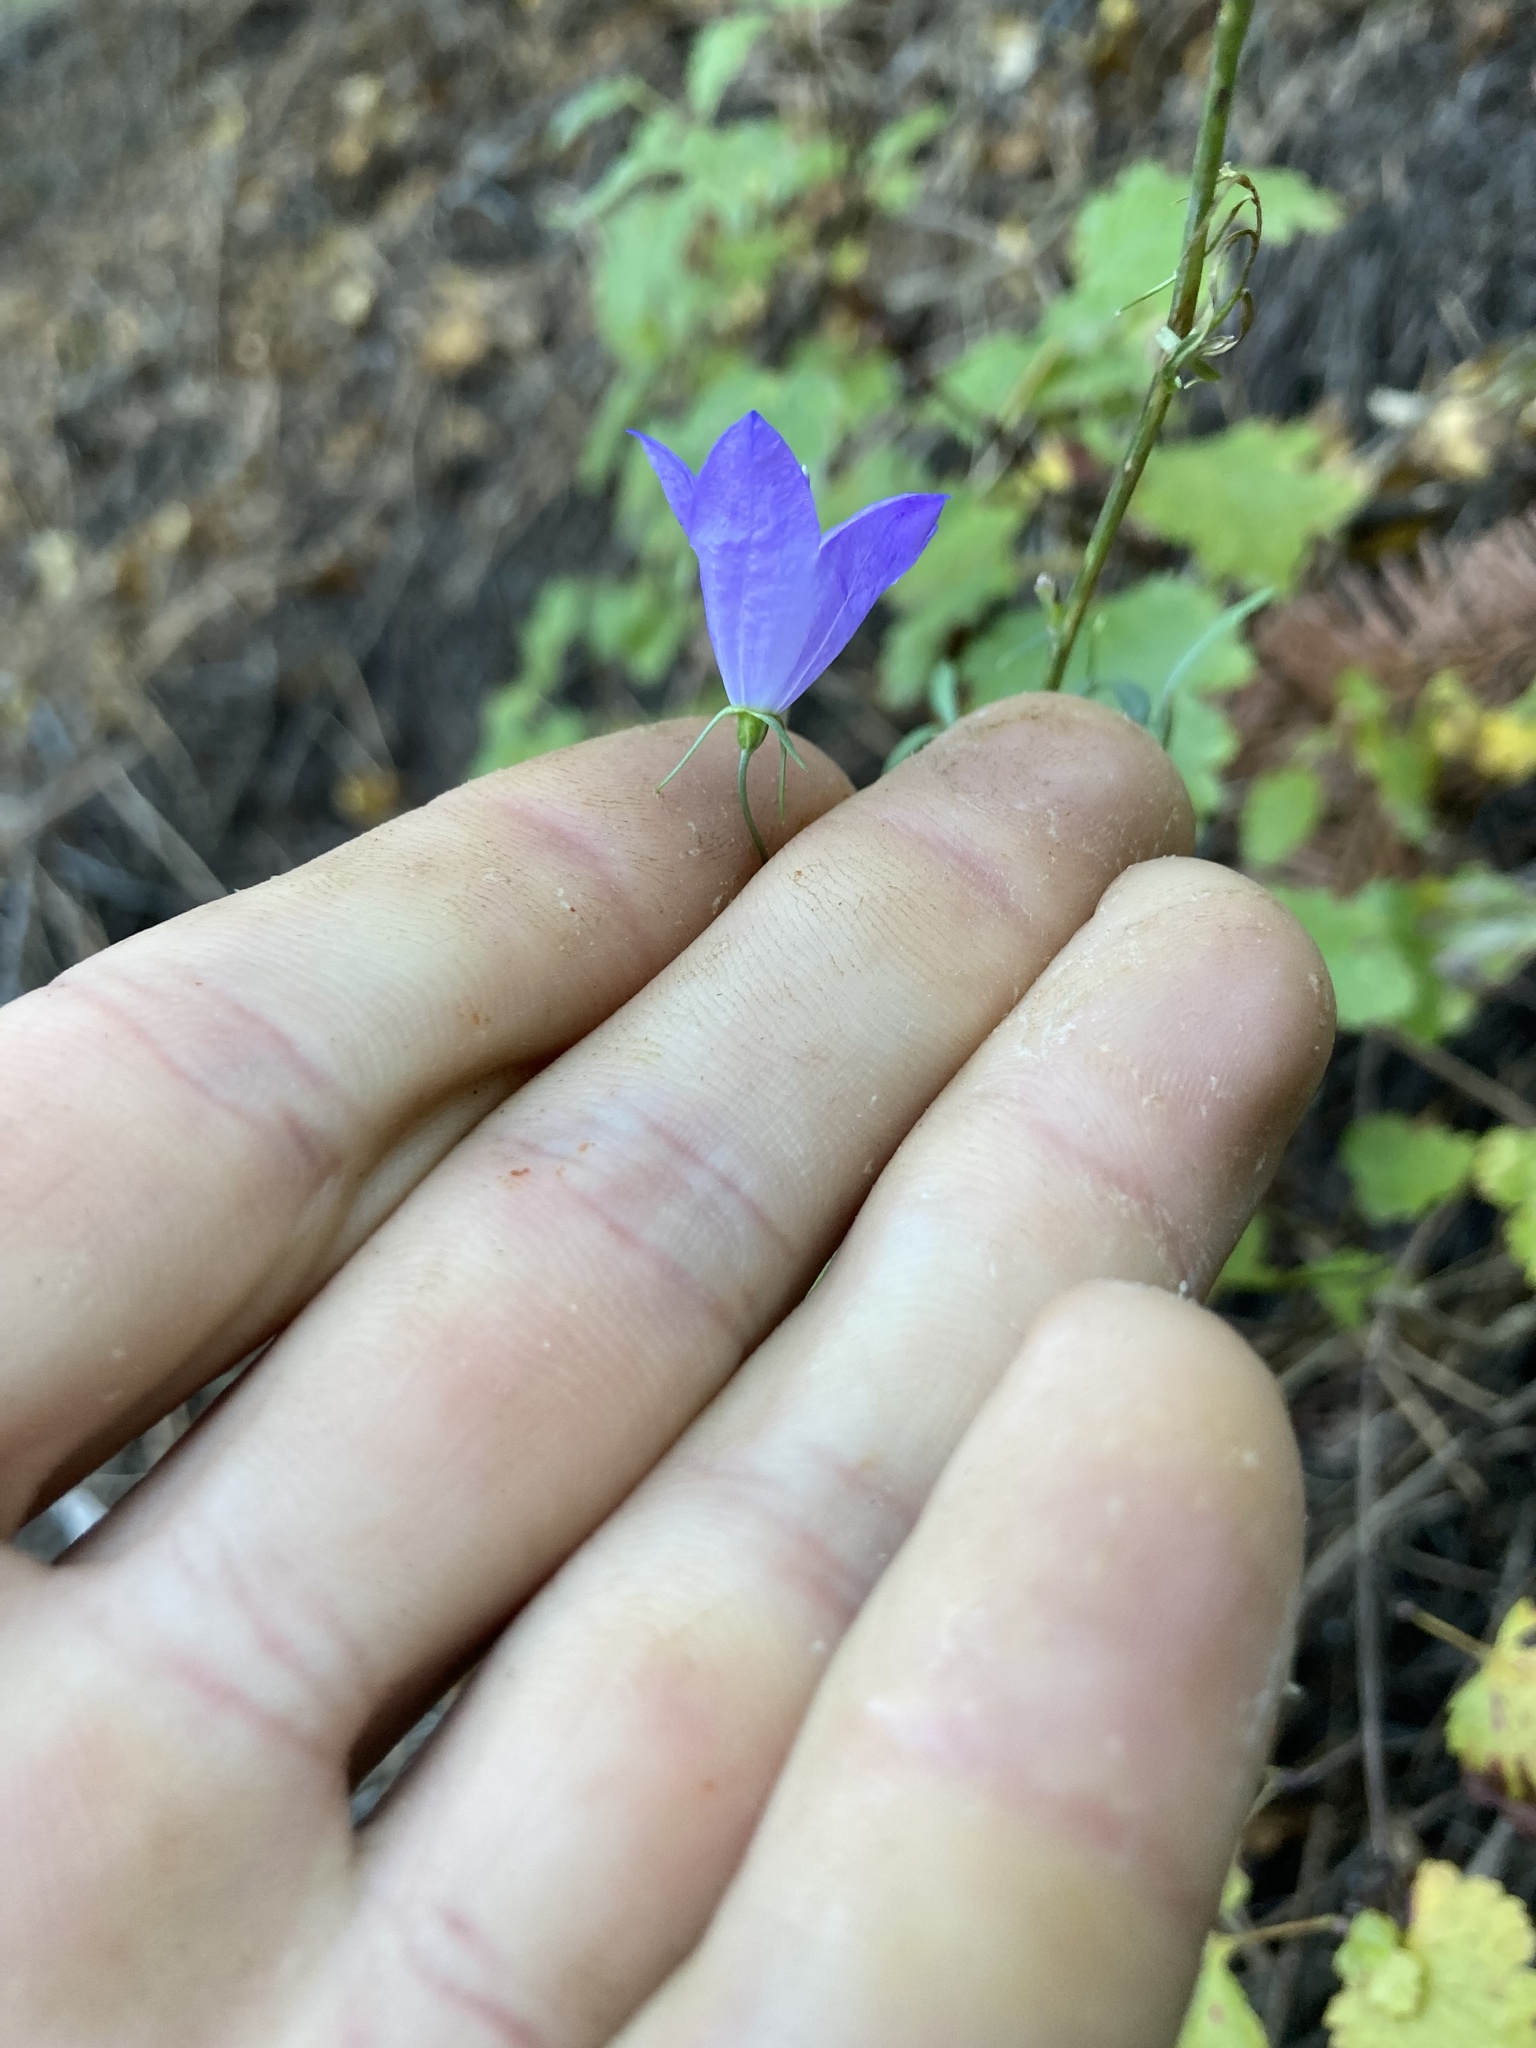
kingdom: Plantae
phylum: Tracheophyta
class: Magnoliopsida
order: Asterales
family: Campanulaceae
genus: Campanula
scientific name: Campanula petiolata
